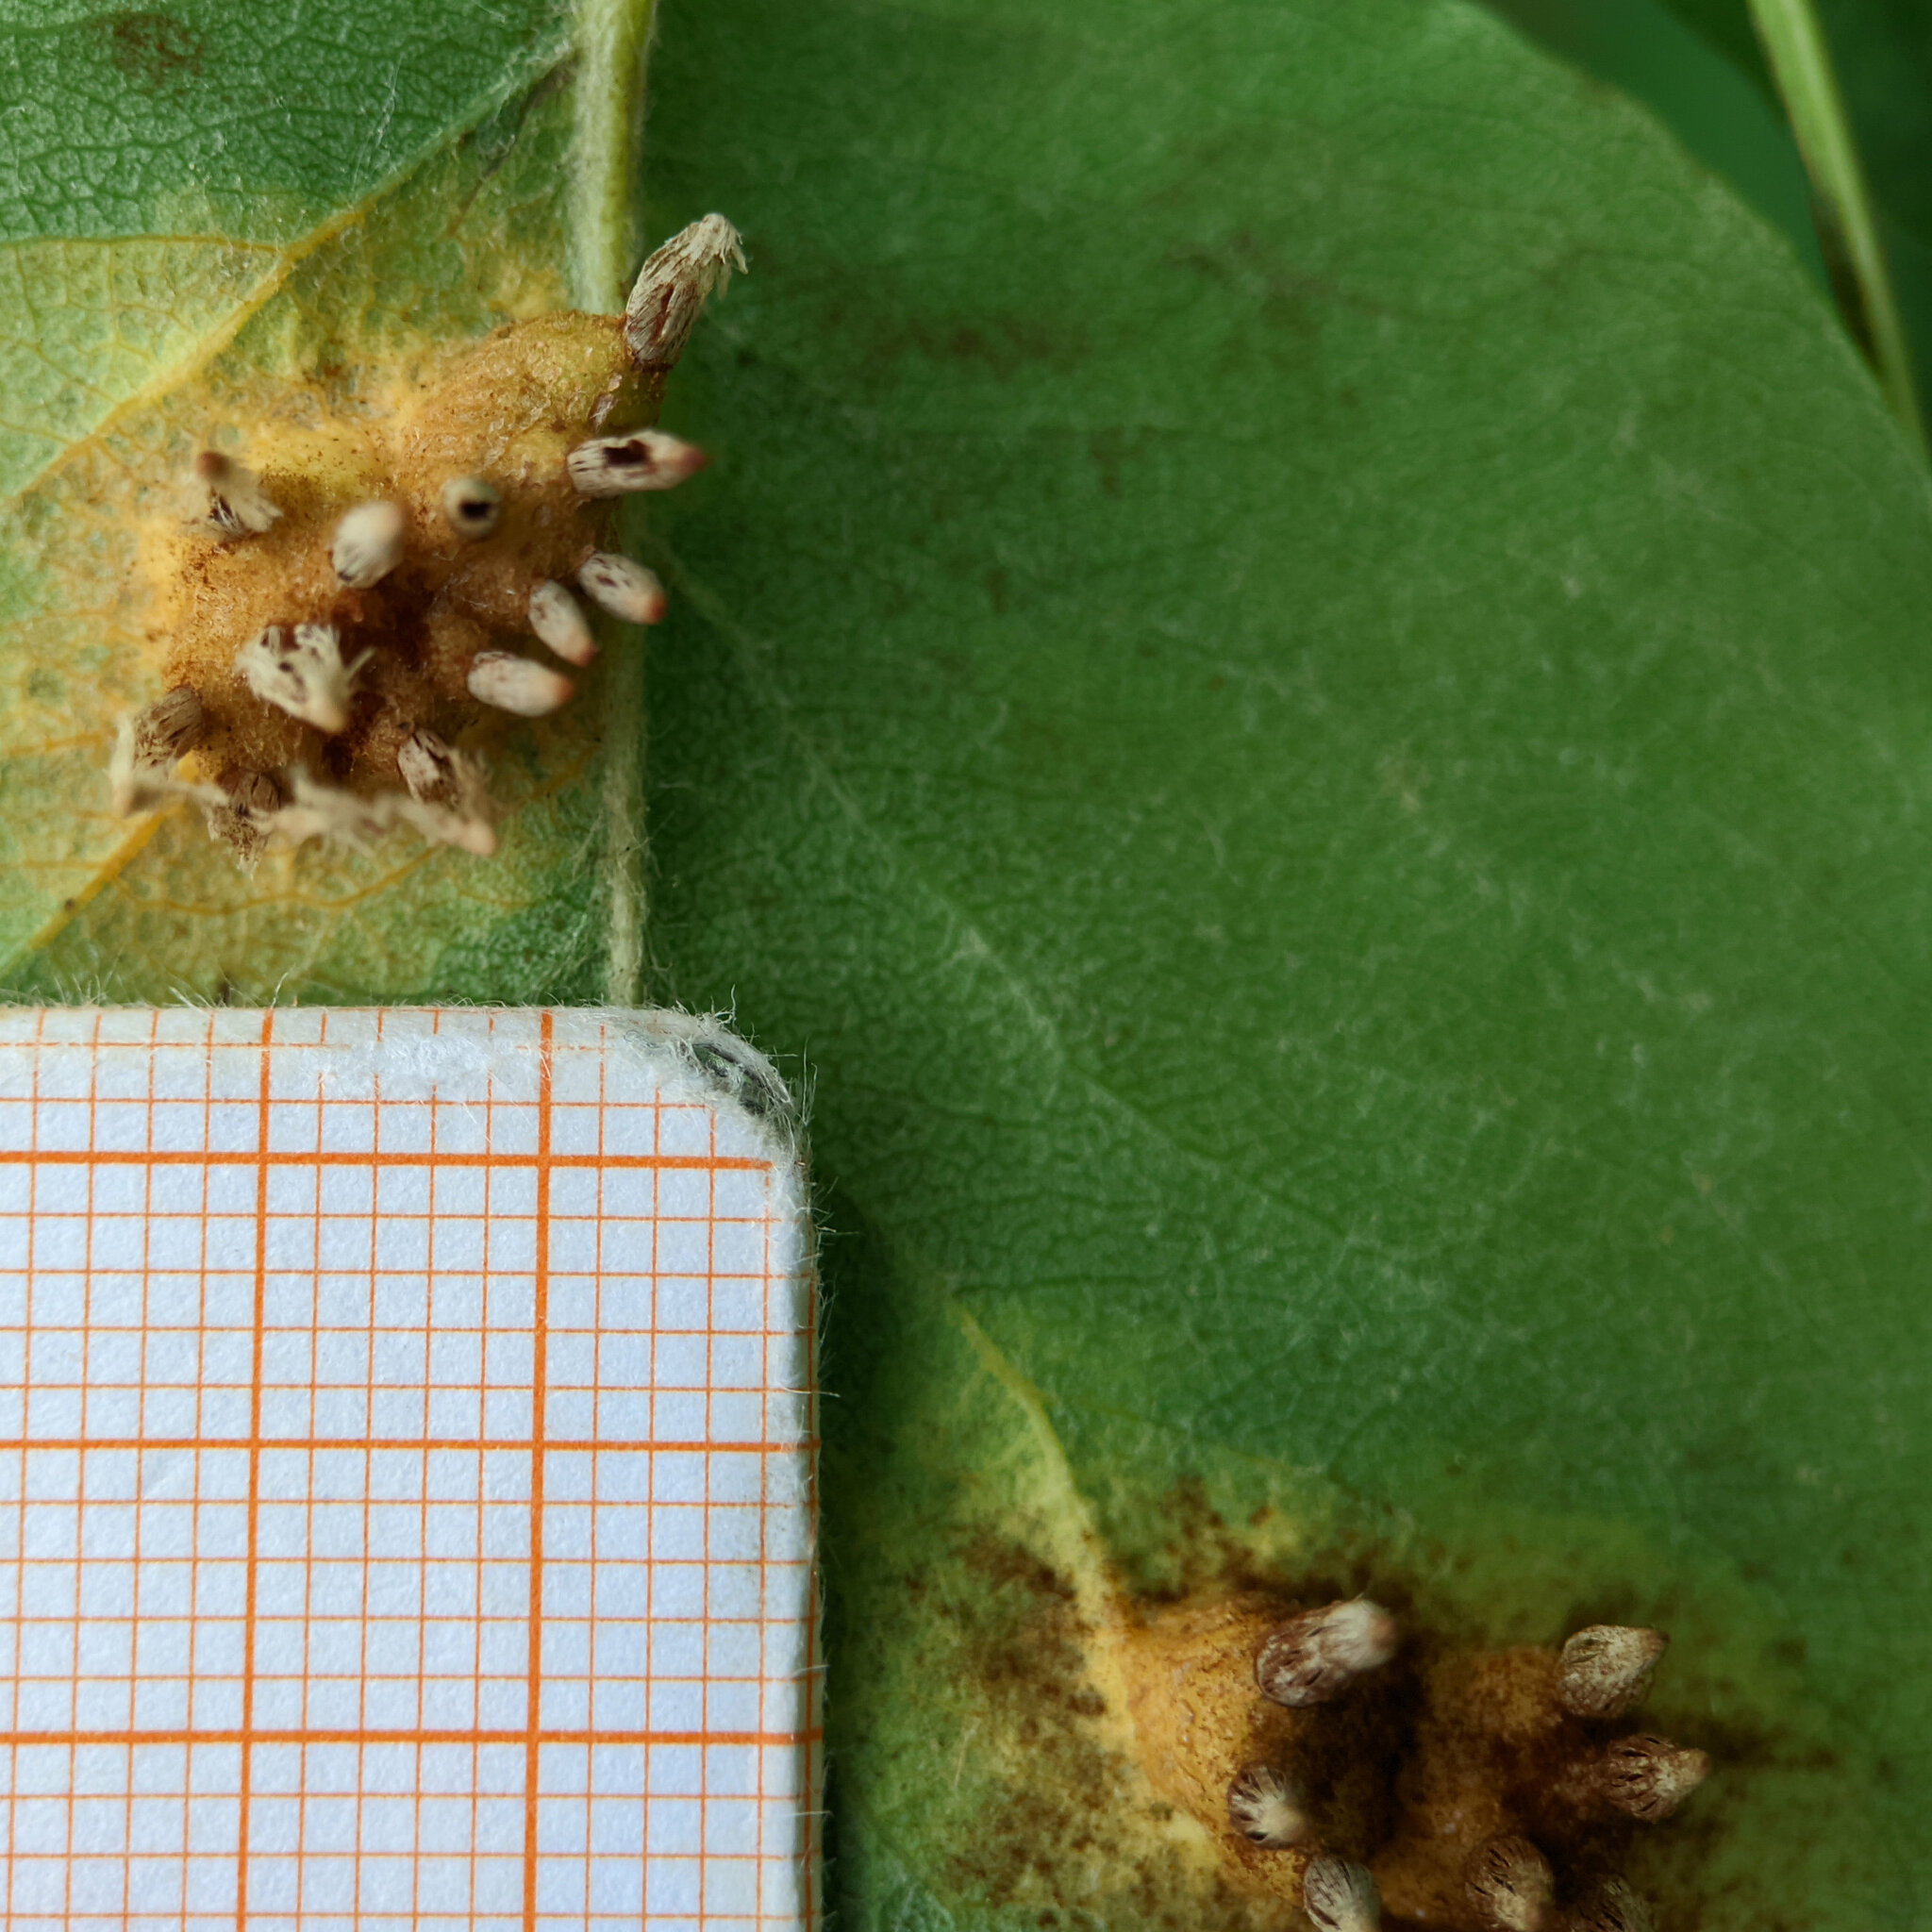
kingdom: Fungi
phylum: Basidiomycota
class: Pucciniomycetes
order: Pucciniales
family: Gymnosporangiaceae
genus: Gymnosporangium
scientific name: Gymnosporangium sabinae
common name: Pear trellis rust fungus
